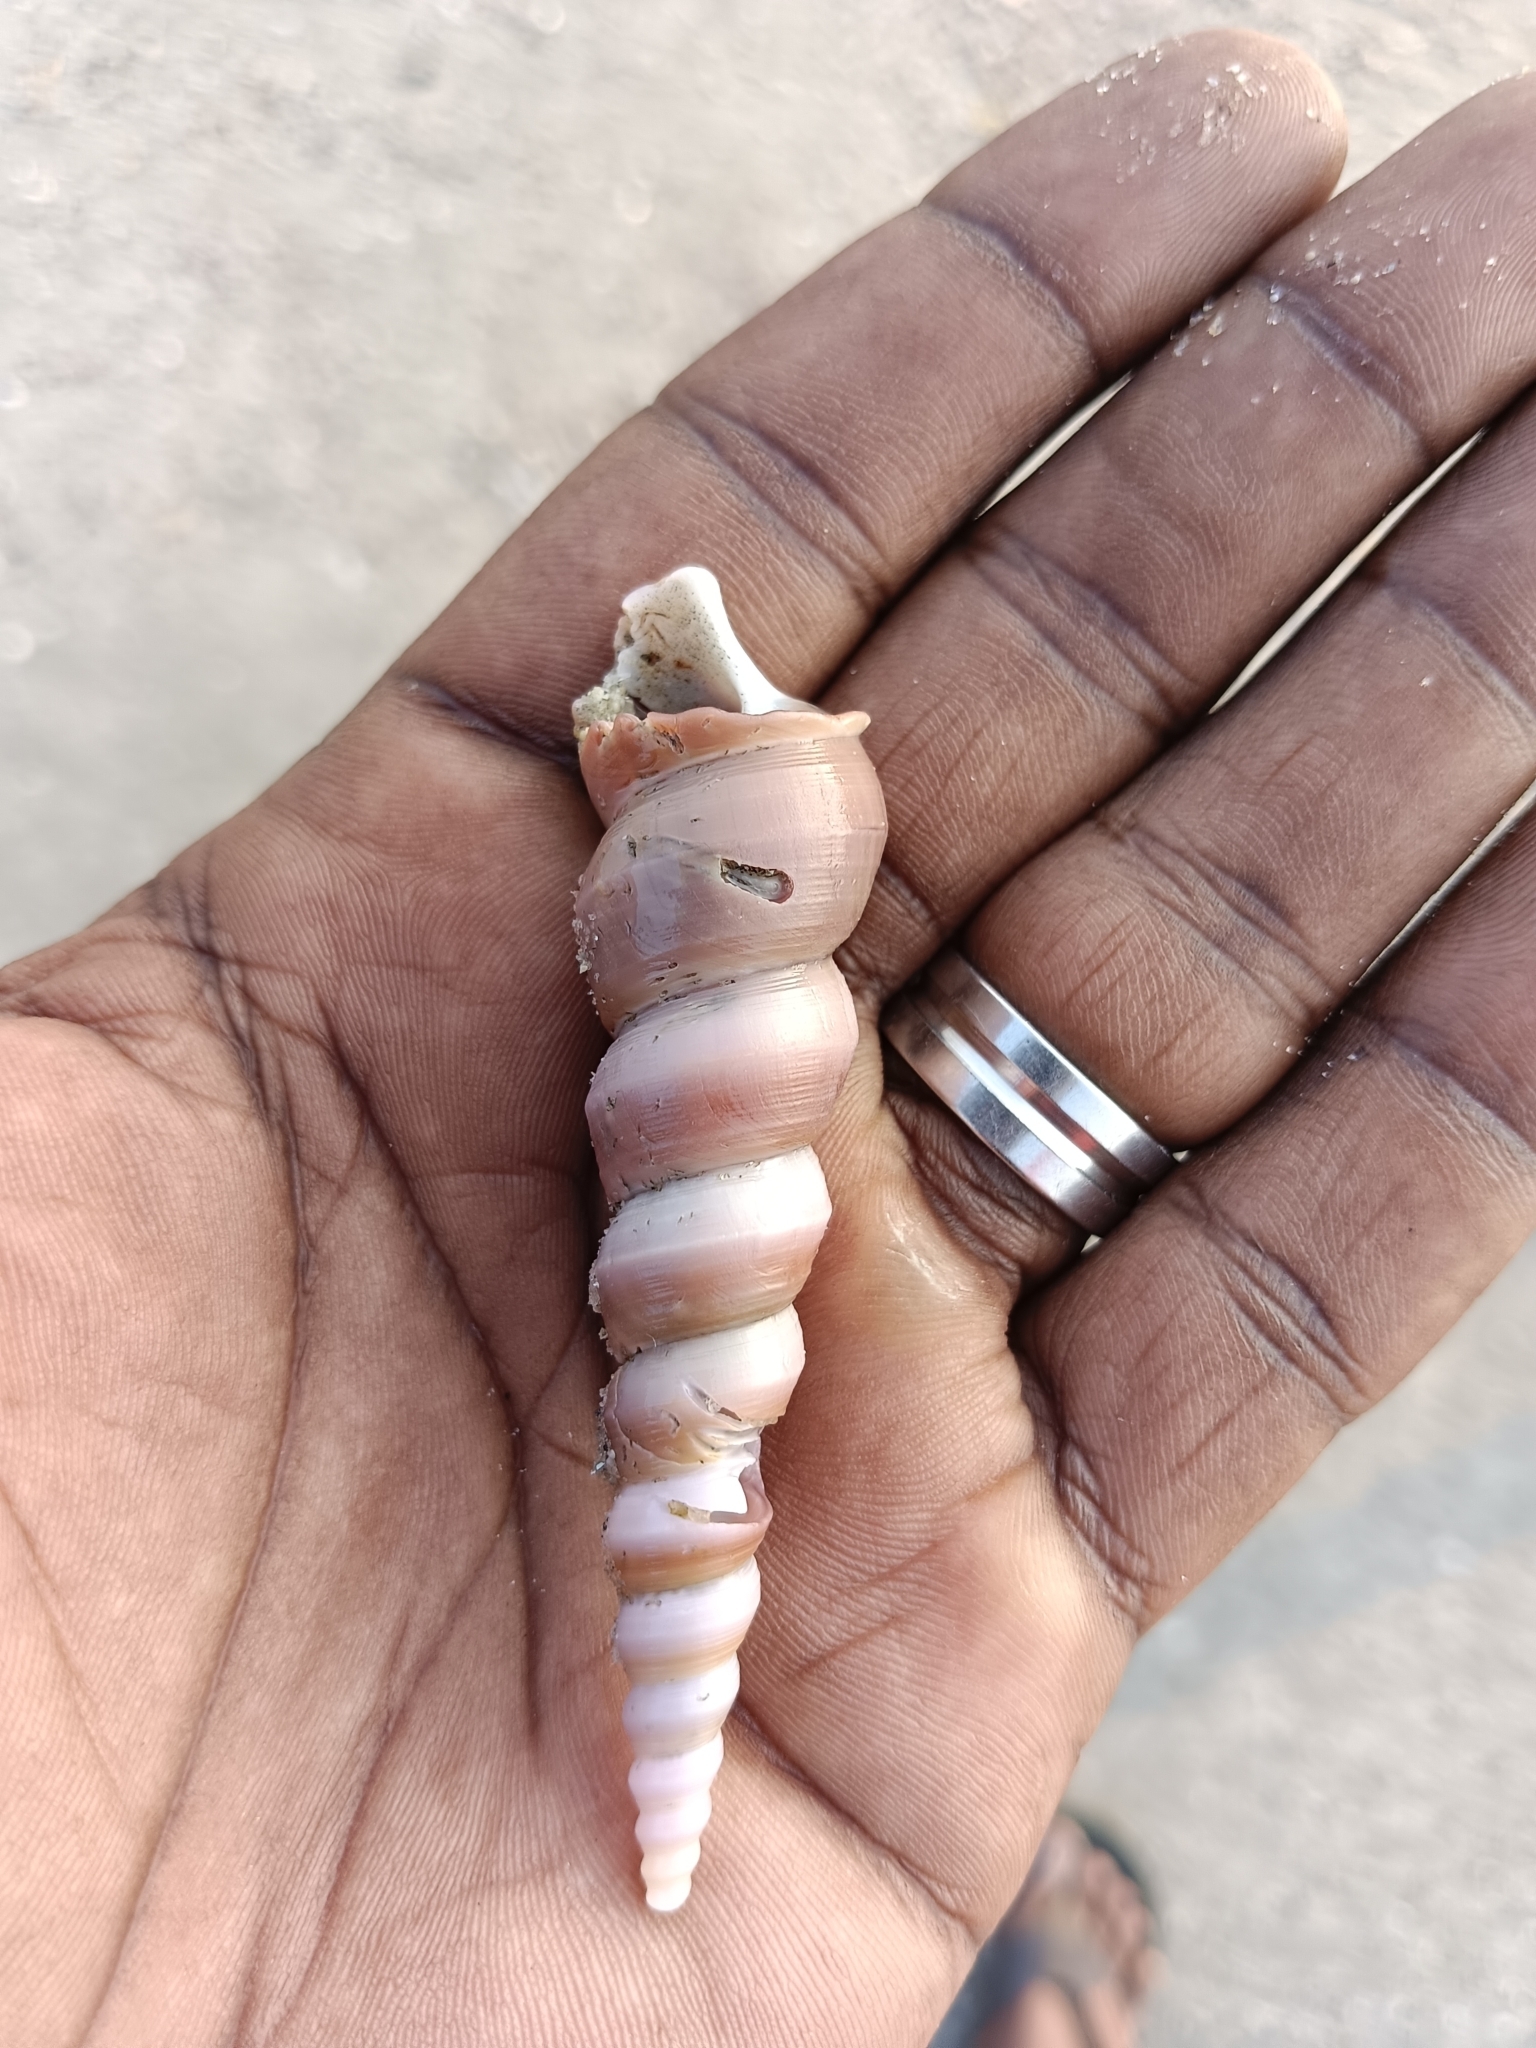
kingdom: Animalia
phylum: Mollusca
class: Gastropoda
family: Turritellidae
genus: Turritella
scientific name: Turritella attenuata
